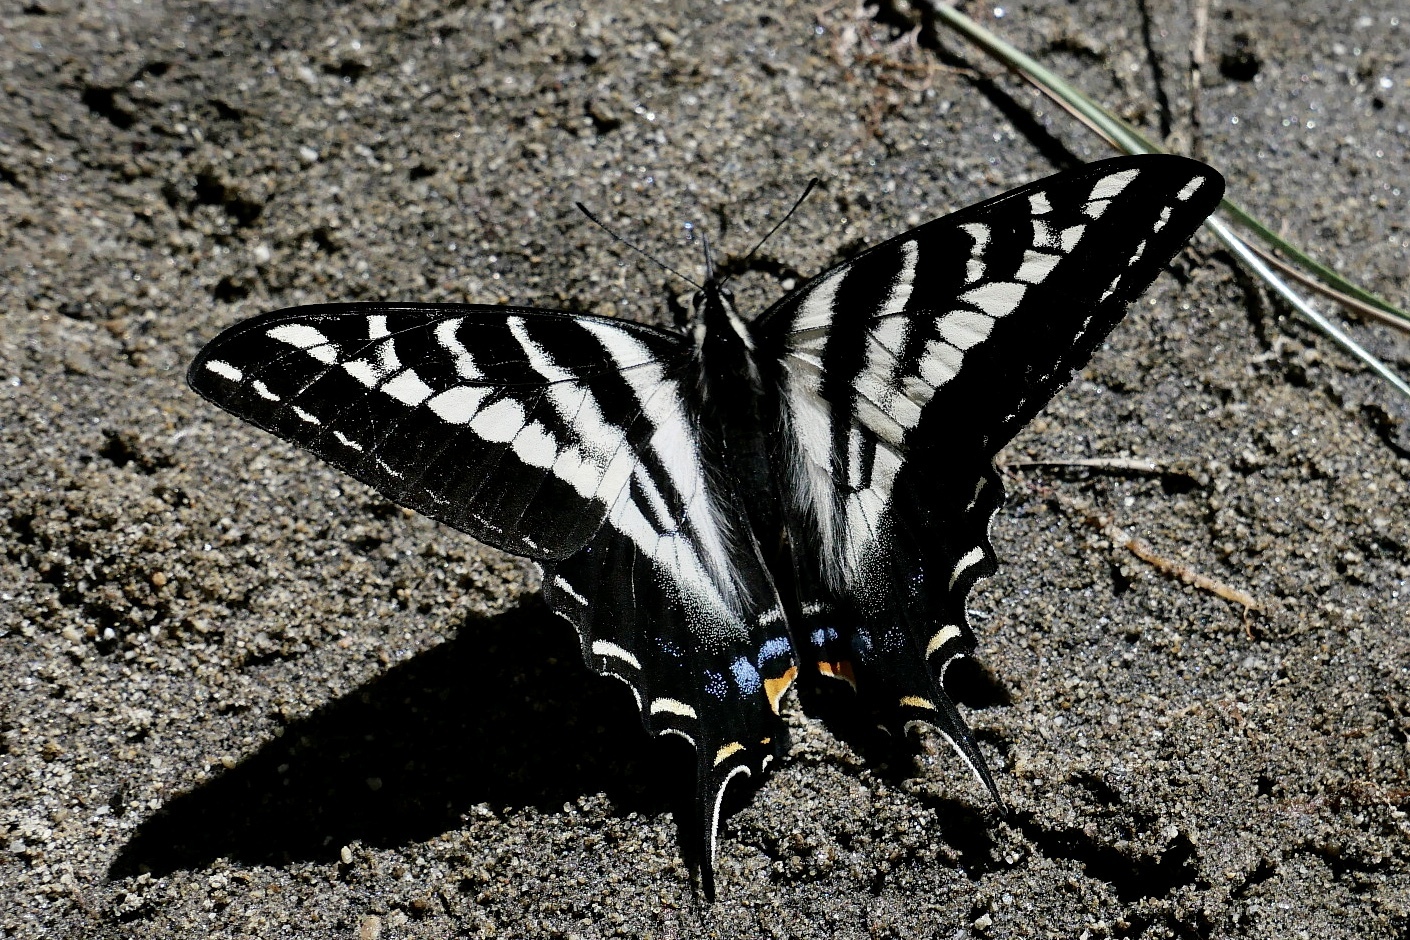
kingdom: Animalia
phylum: Arthropoda
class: Insecta
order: Lepidoptera
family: Papilionidae
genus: Papilio
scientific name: Papilio eurymedon
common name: Pale tiger swallowtail
